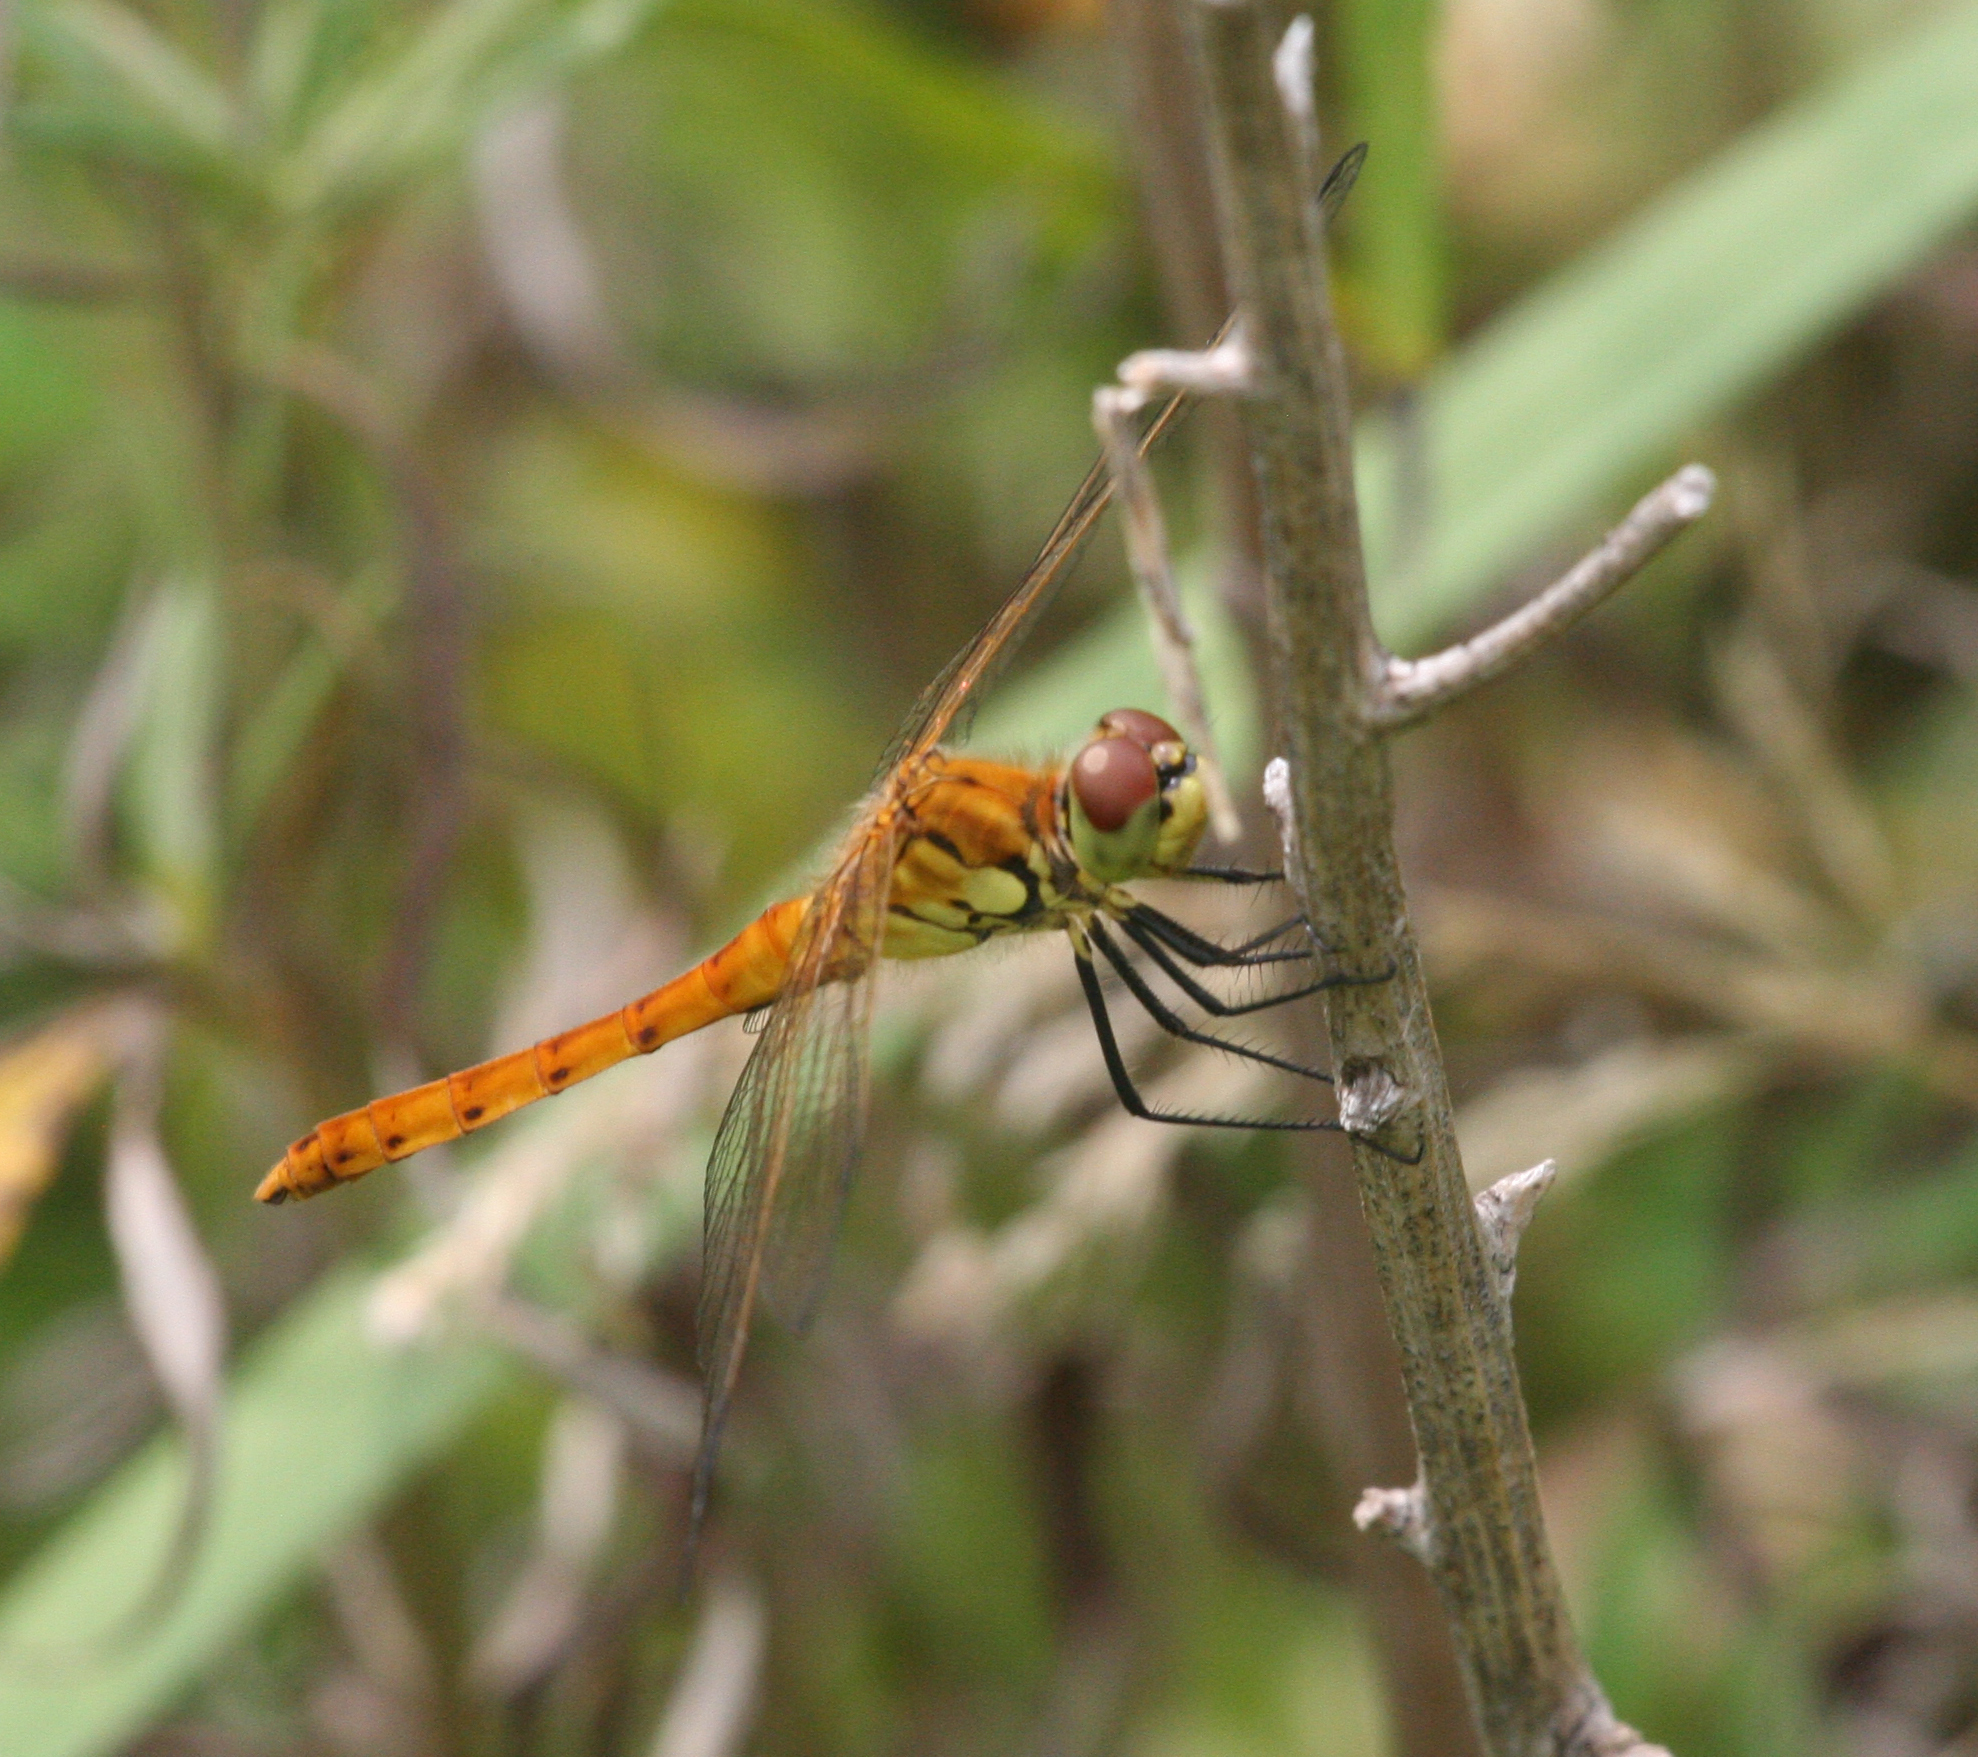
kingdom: Animalia
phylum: Arthropoda
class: Insecta
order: Odonata
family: Libellulidae
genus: Sympetrum
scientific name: Sympetrum depressiusculum
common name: Spotted darter
